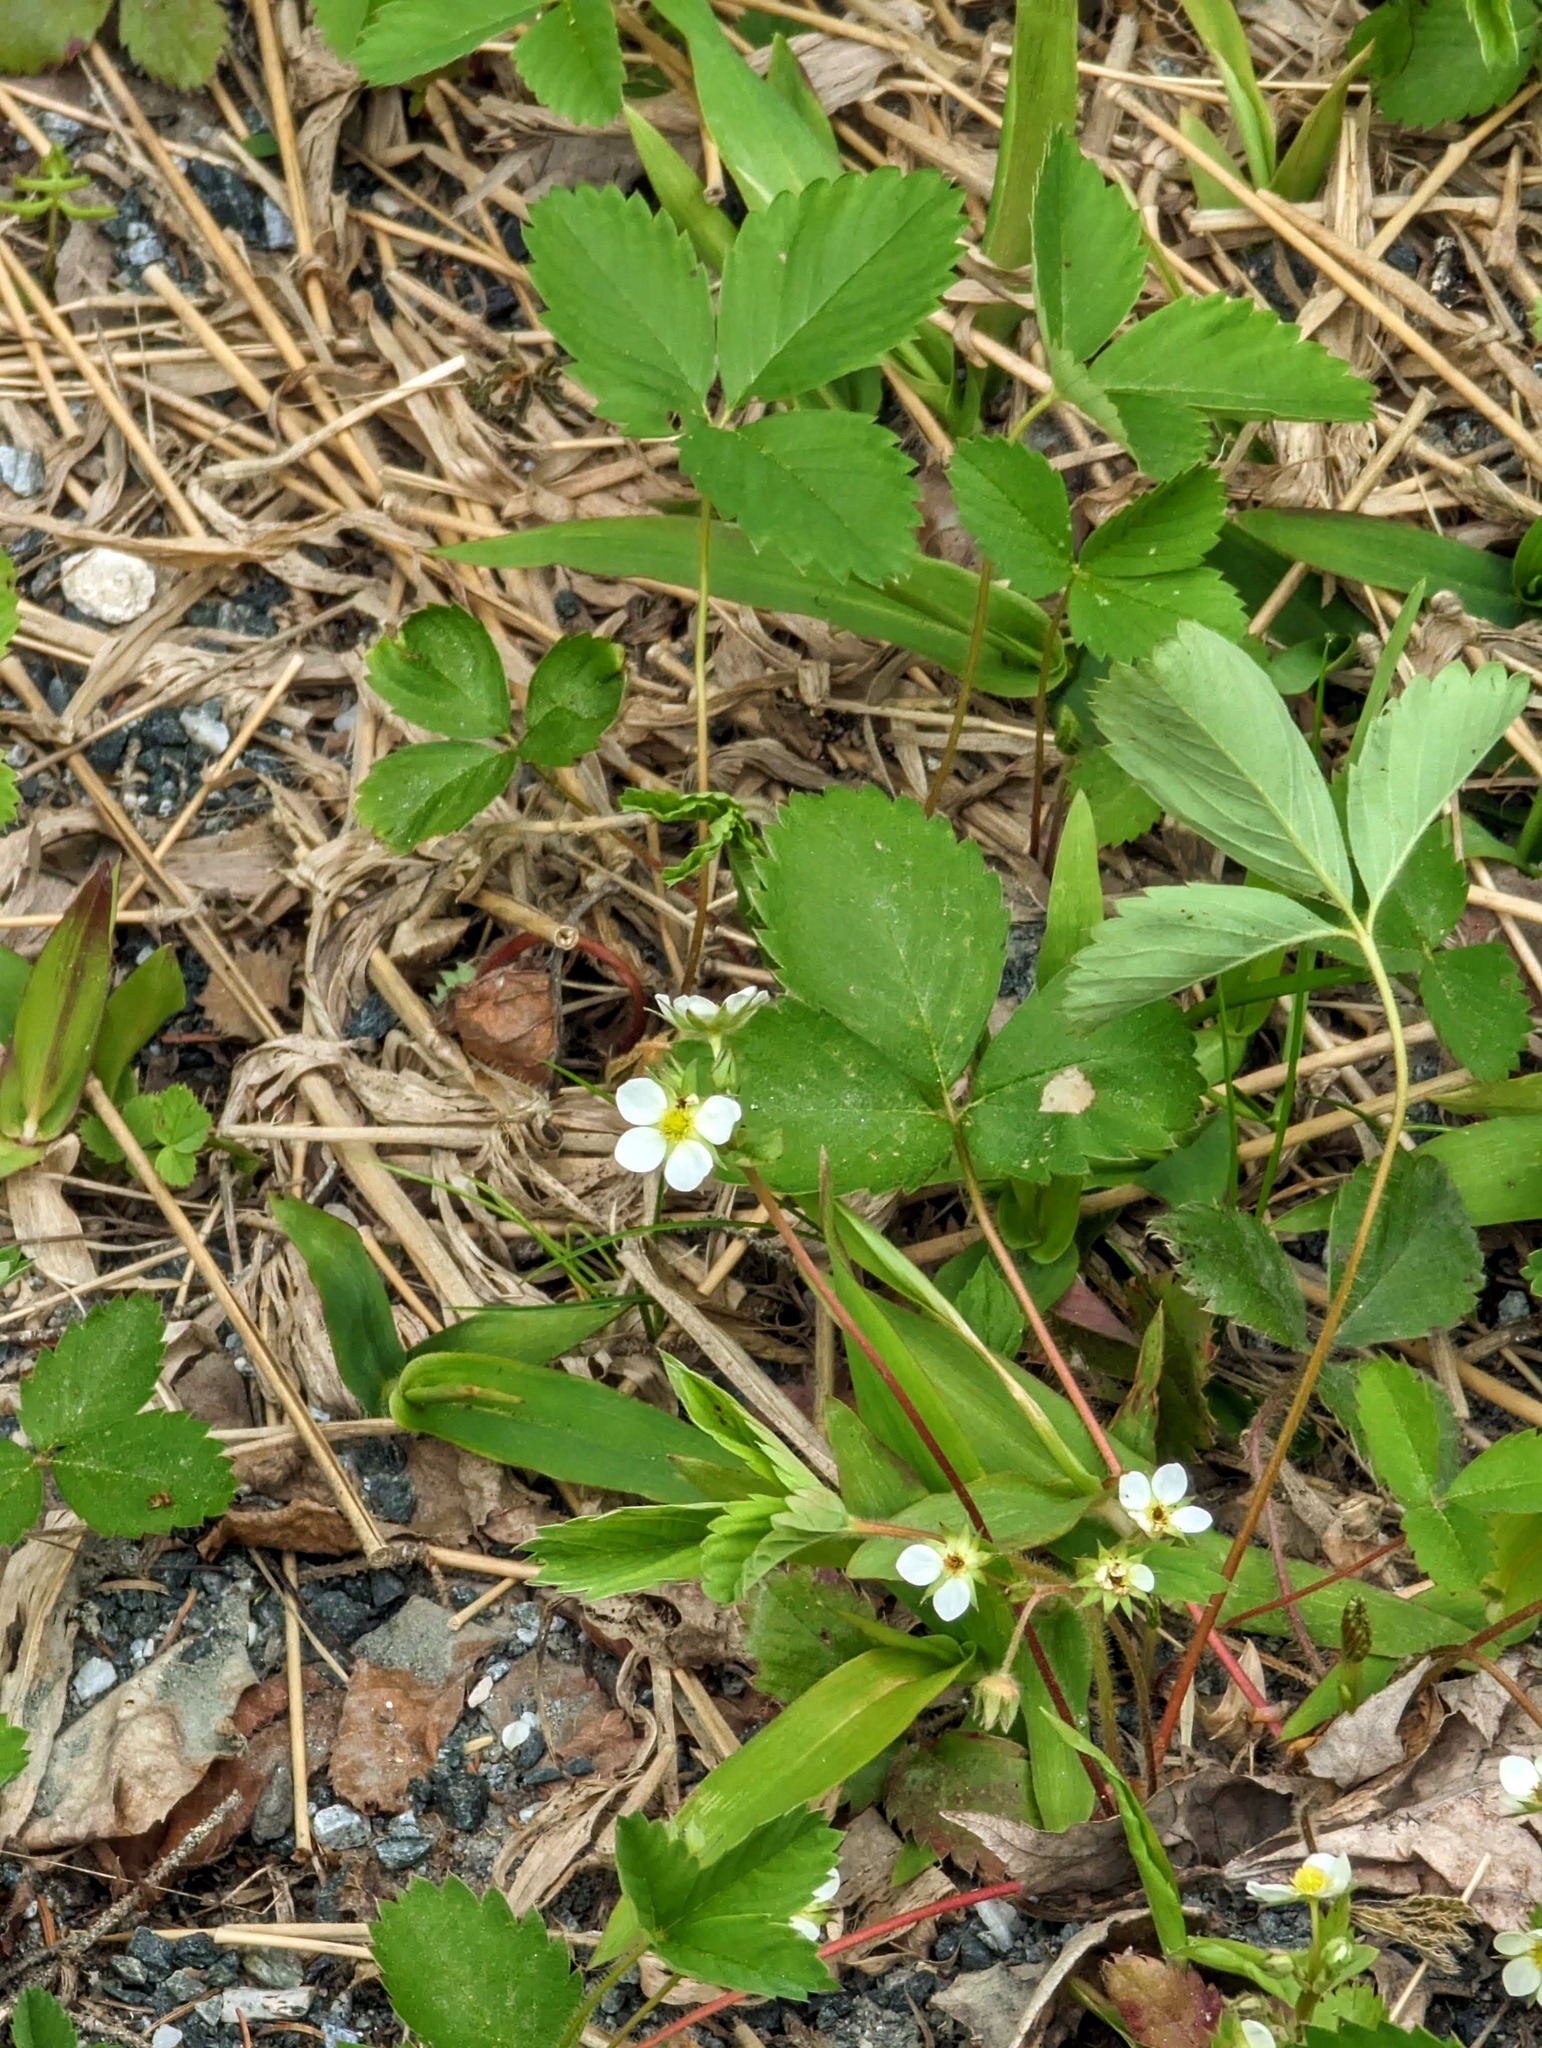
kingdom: Plantae
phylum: Tracheophyta
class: Magnoliopsida
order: Rosales
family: Rosaceae
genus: Fragaria
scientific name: Fragaria virginiana
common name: Thickleaved wild strawberry
